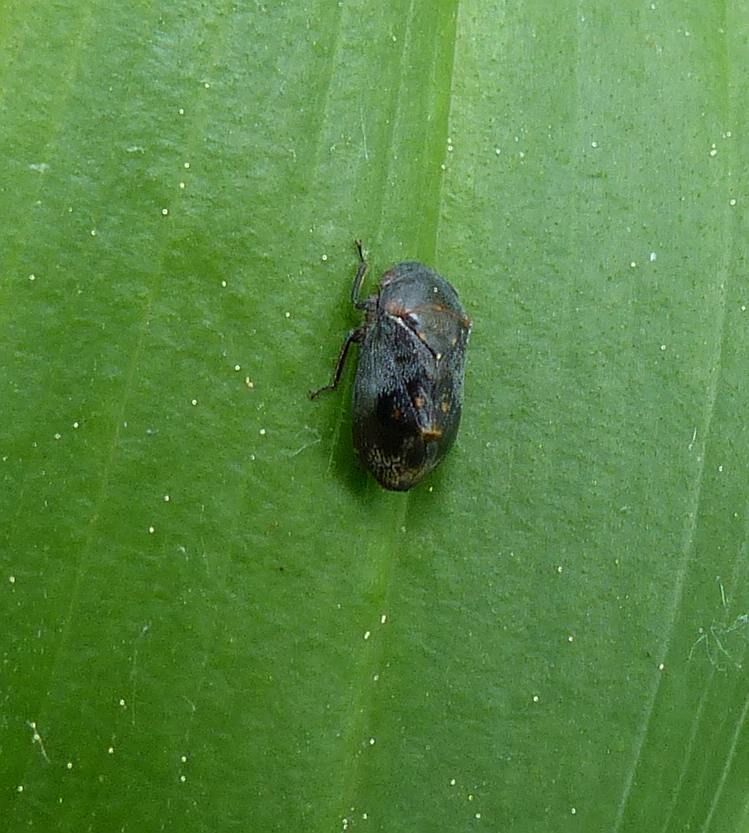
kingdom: Animalia
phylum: Arthropoda
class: Insecta
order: Hemiptera
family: Cicadellidae
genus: Penthimia
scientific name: Penthimia americana
